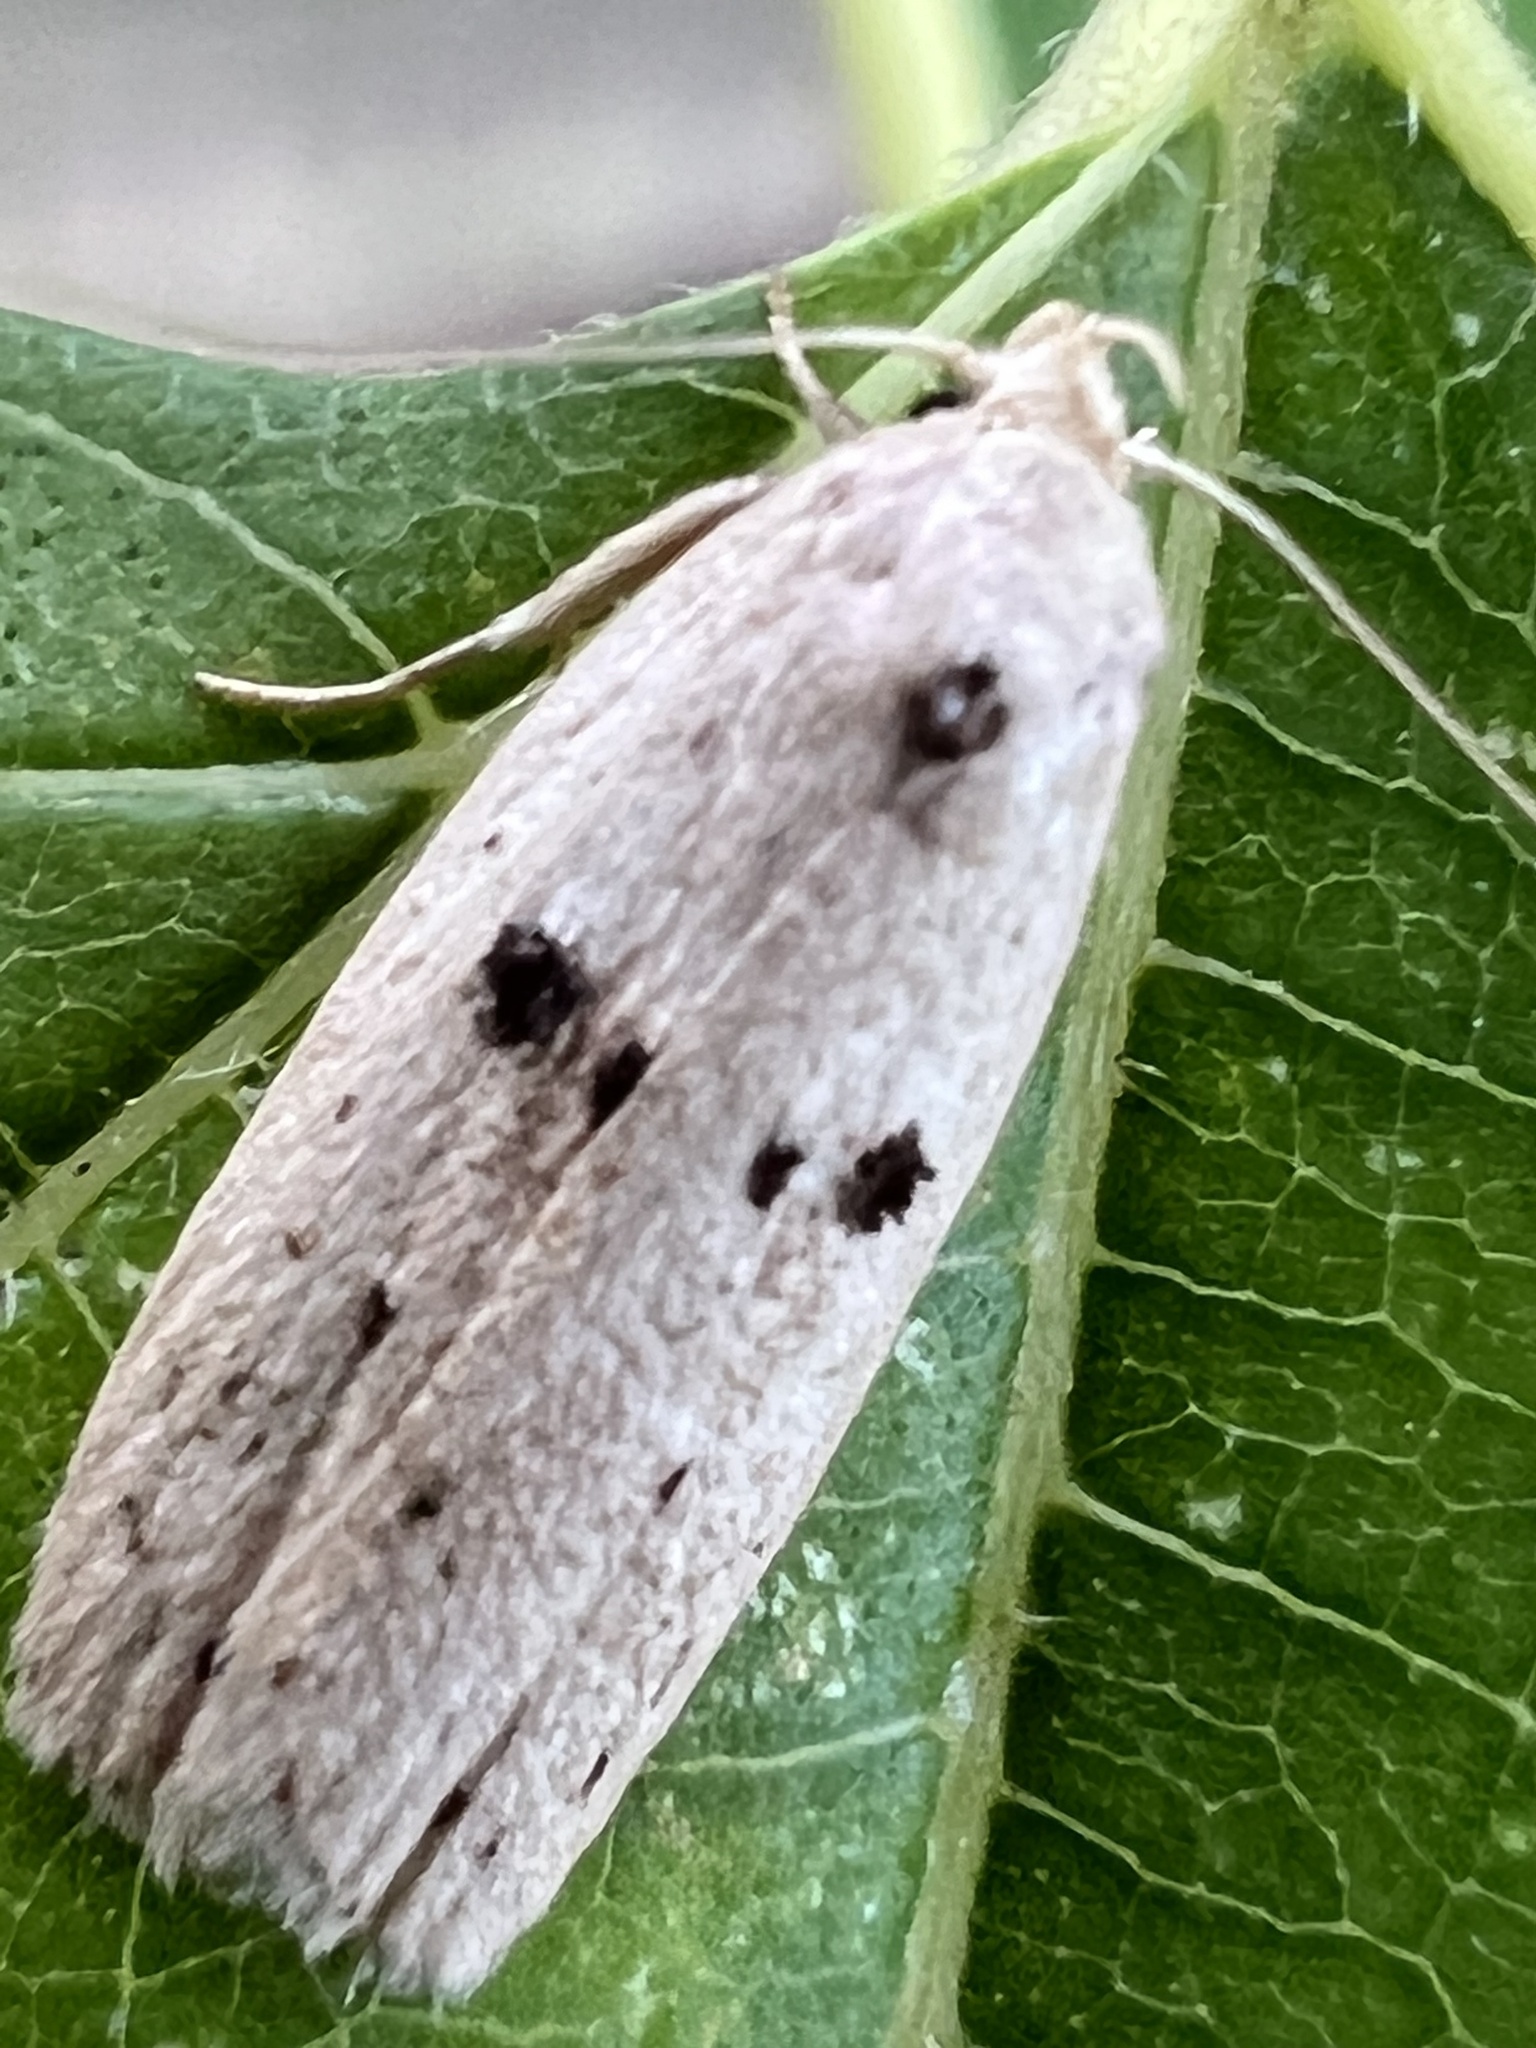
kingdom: Animalia
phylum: Arthropoda
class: Insecta
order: Lepidoptera
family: Peleopodidae
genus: Scythropiodes
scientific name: Scythropiodes issikii
